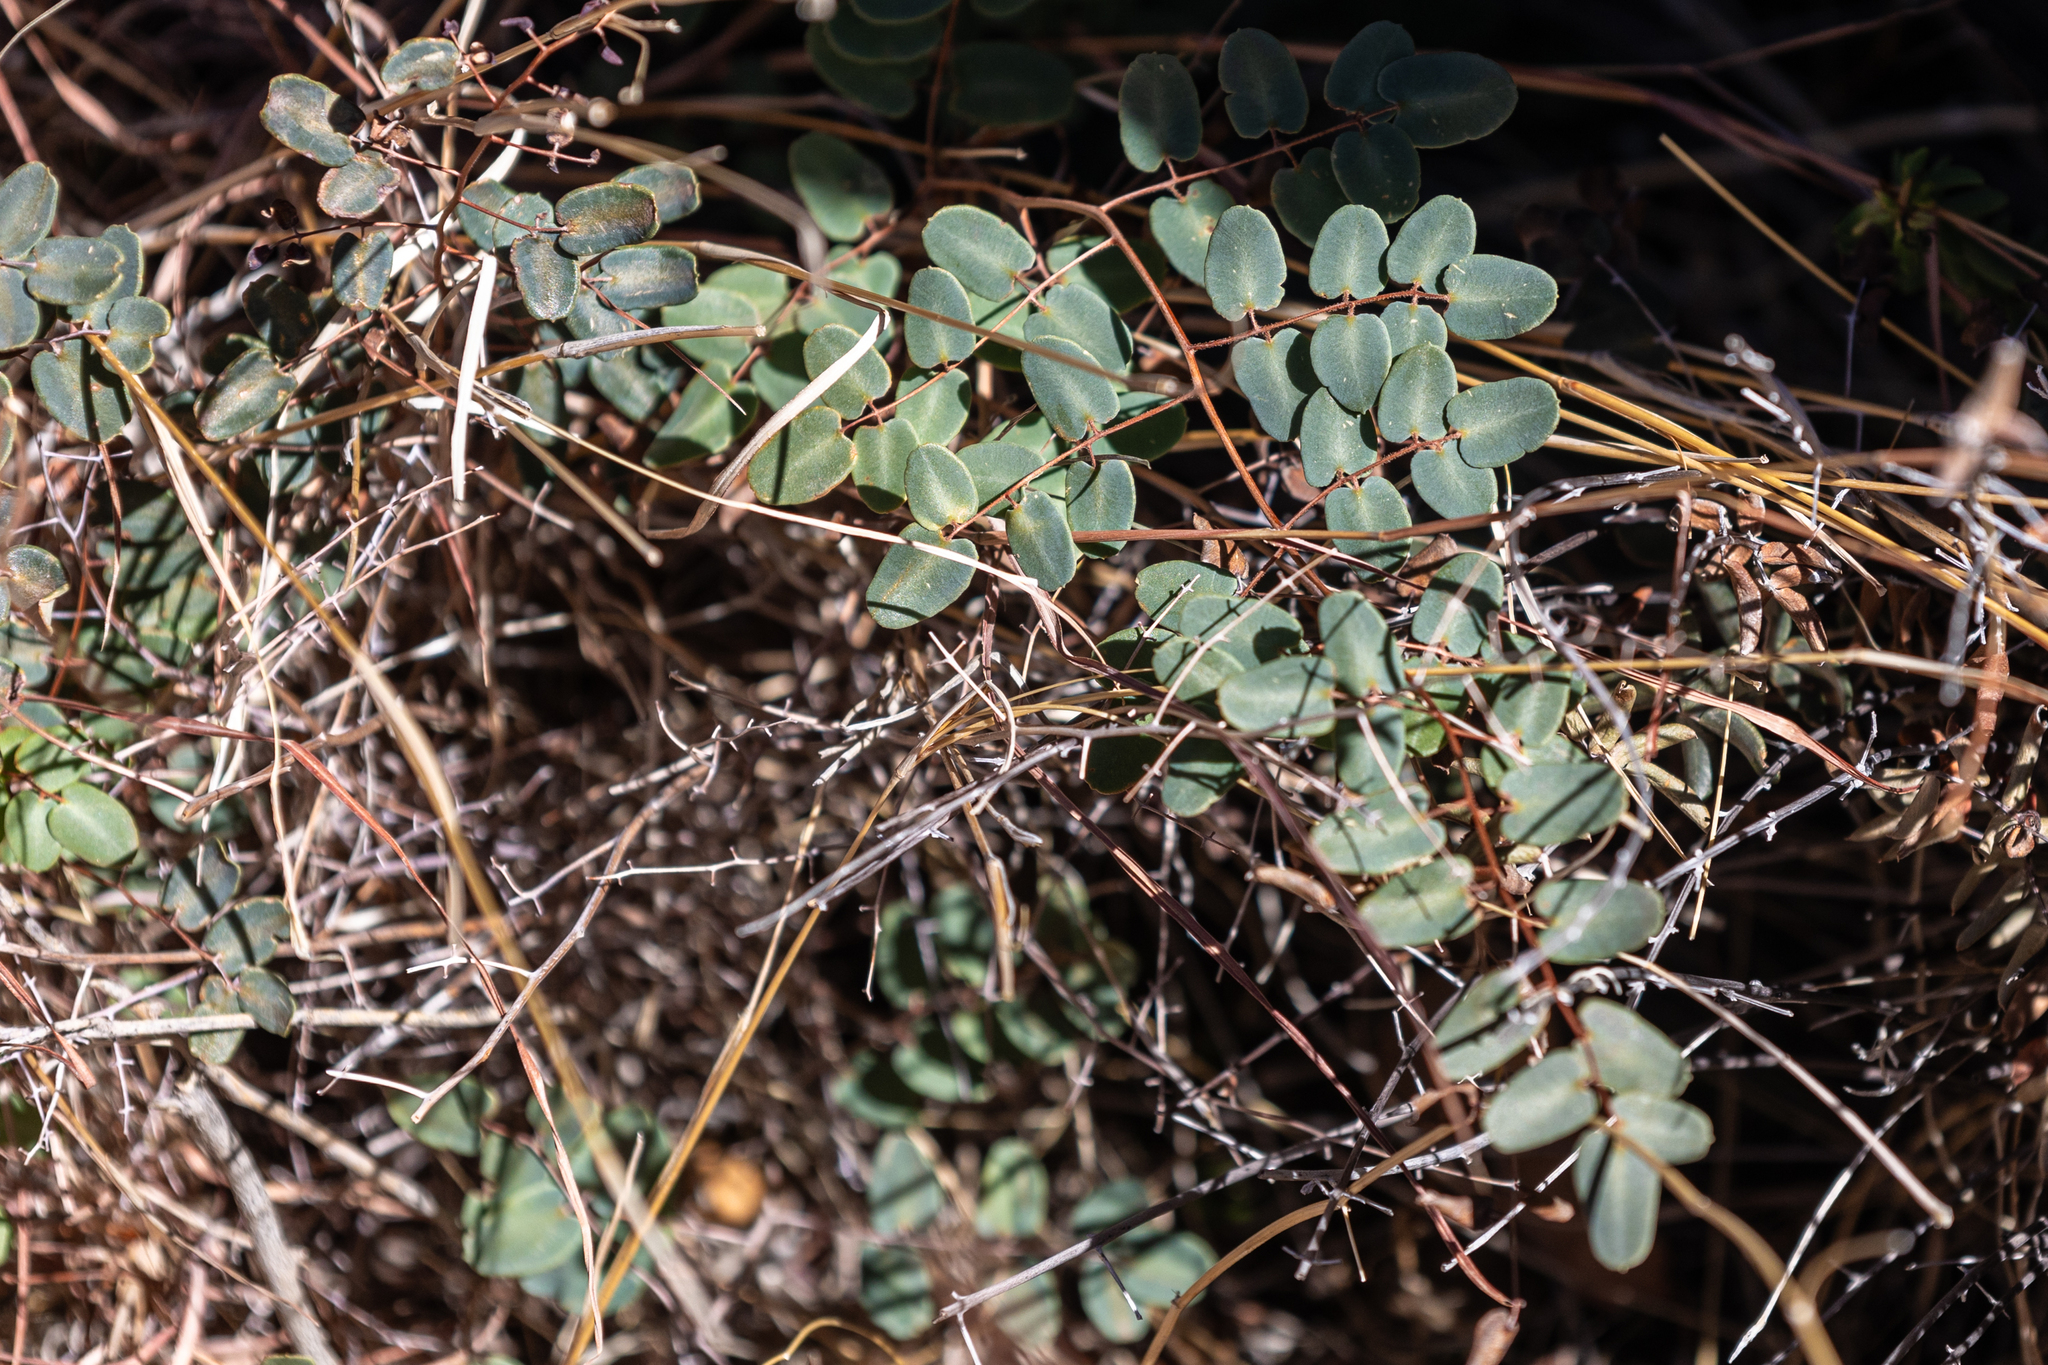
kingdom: Plantae
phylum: Tracheophyta
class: Polypodiopsida
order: Polypodiales
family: Pteridaceae
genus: Pellaea
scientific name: Pellaea ovata
